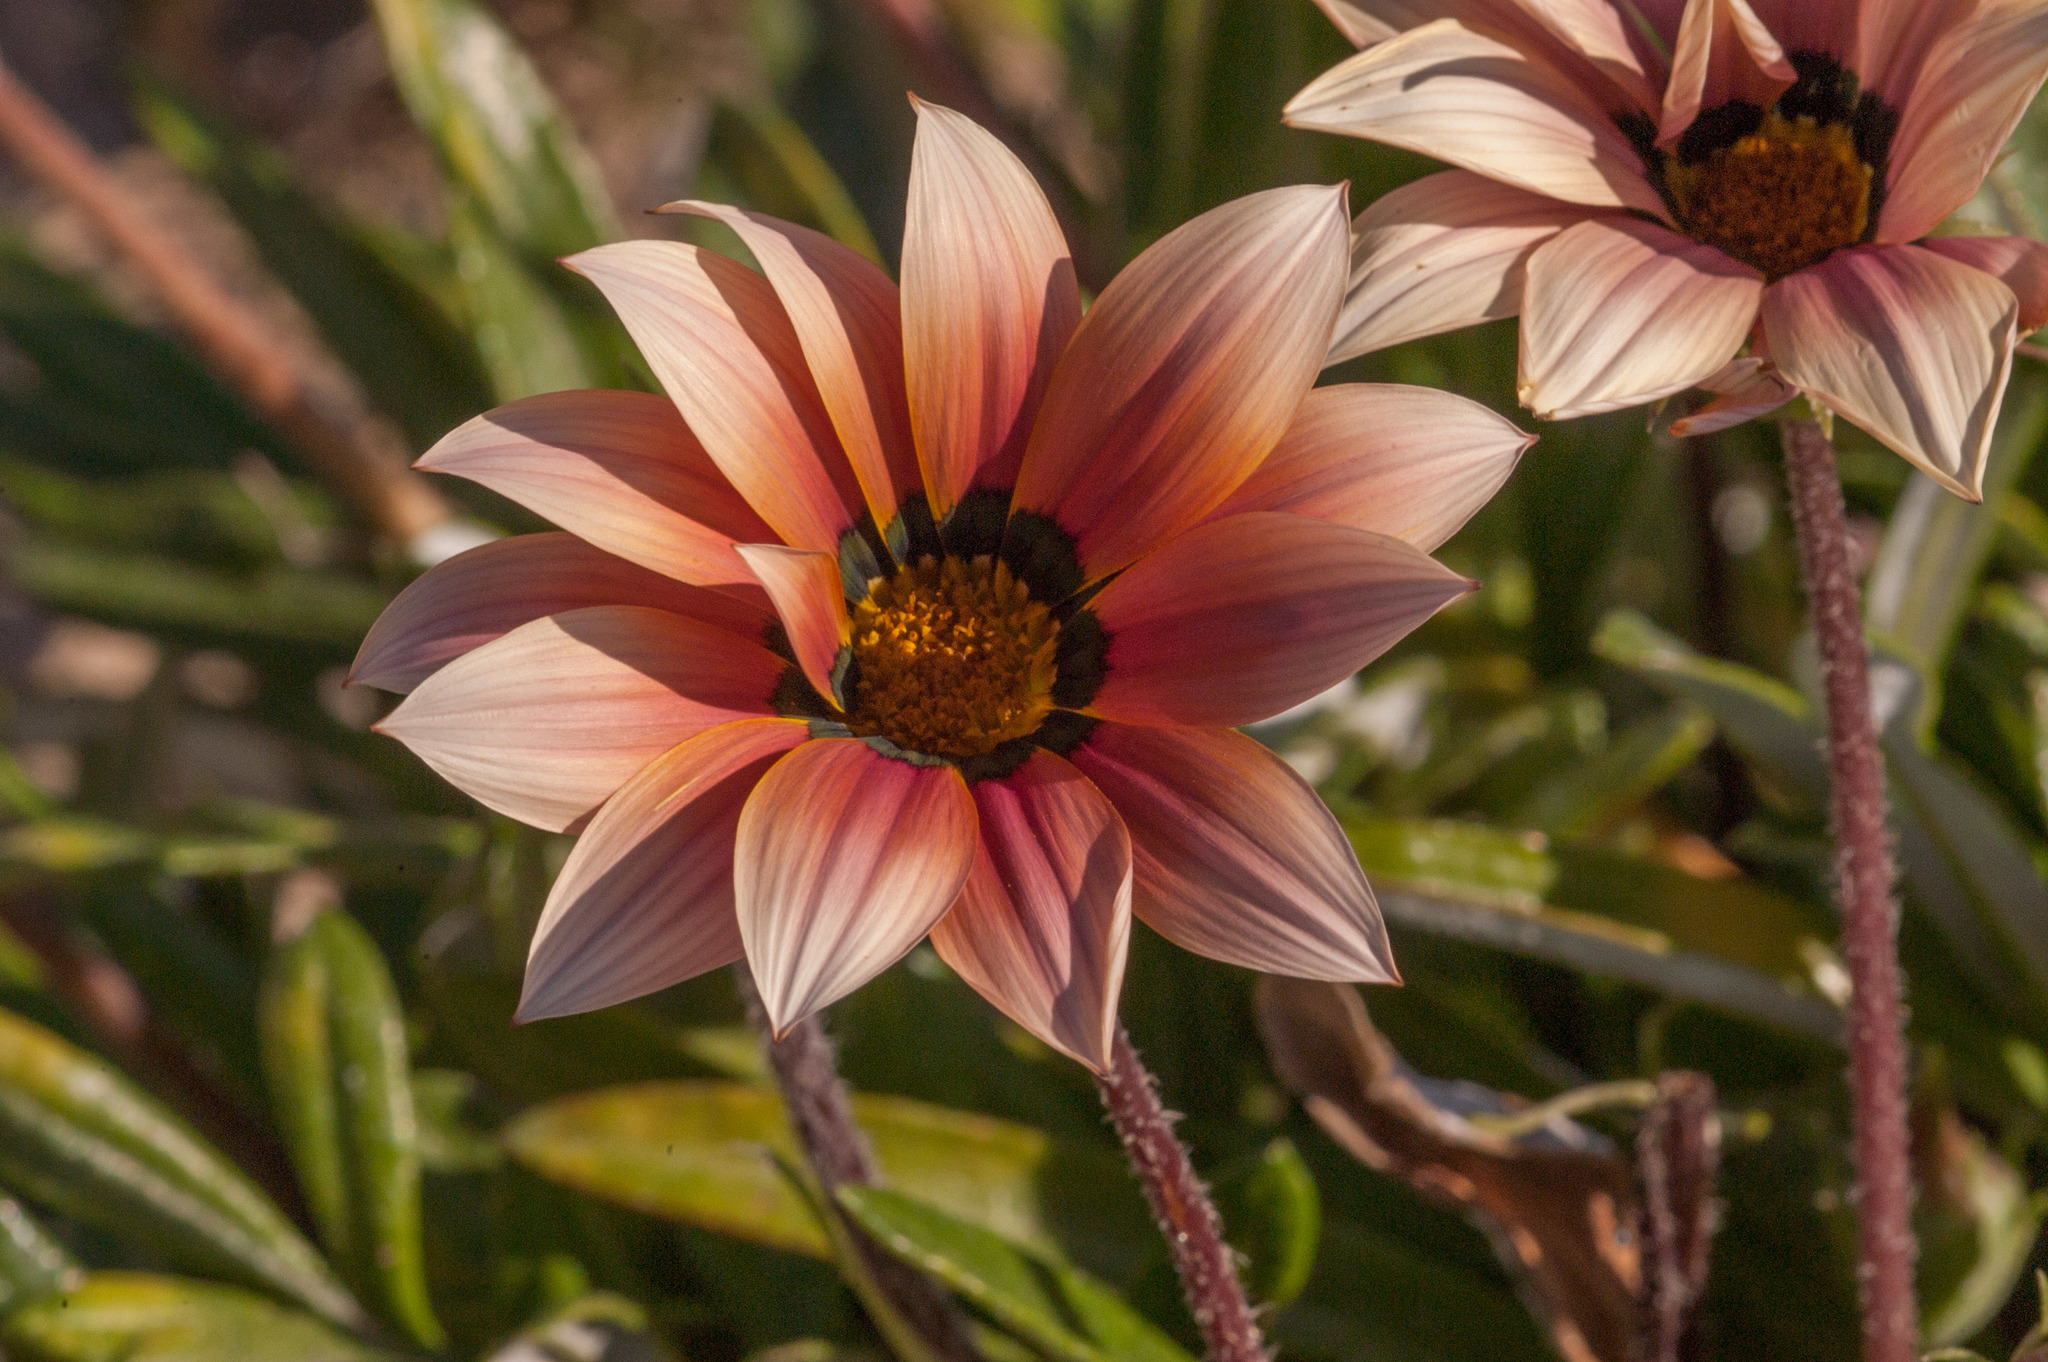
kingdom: Plantae
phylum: Tracheophyta
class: Magnoliopsida
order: Asterales
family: Asteraceae
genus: Gazania
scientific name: Gazania splendens
